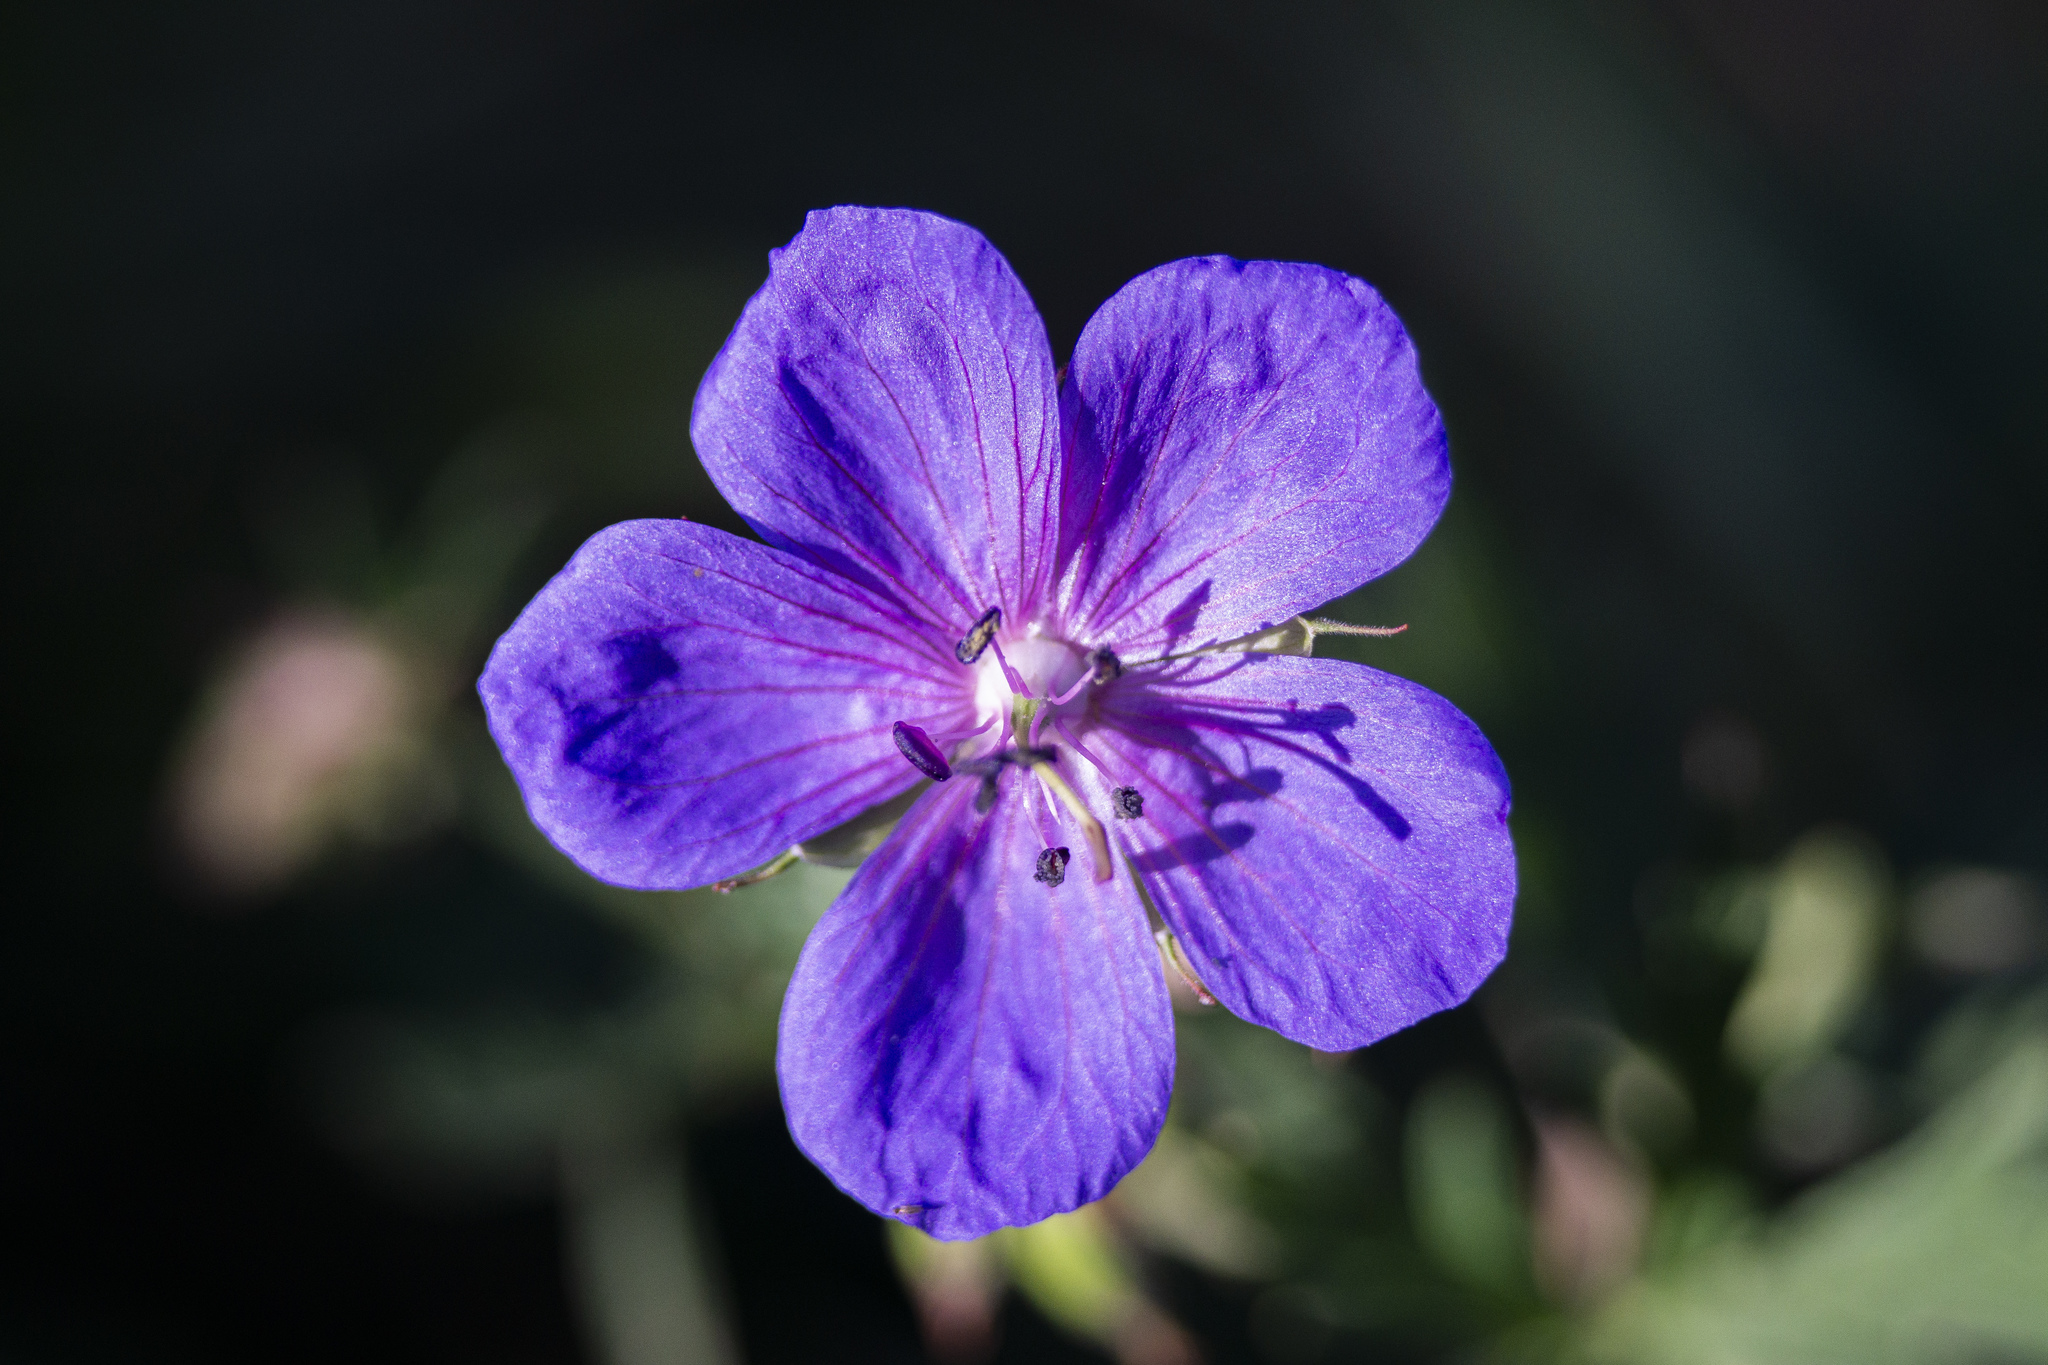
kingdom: Plantae
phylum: Tracheophyta
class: Magnoliopsida
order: Geraniales
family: Geraniaceae
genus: Geranium
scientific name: Geranium pratense
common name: Meadow crane's-bill
